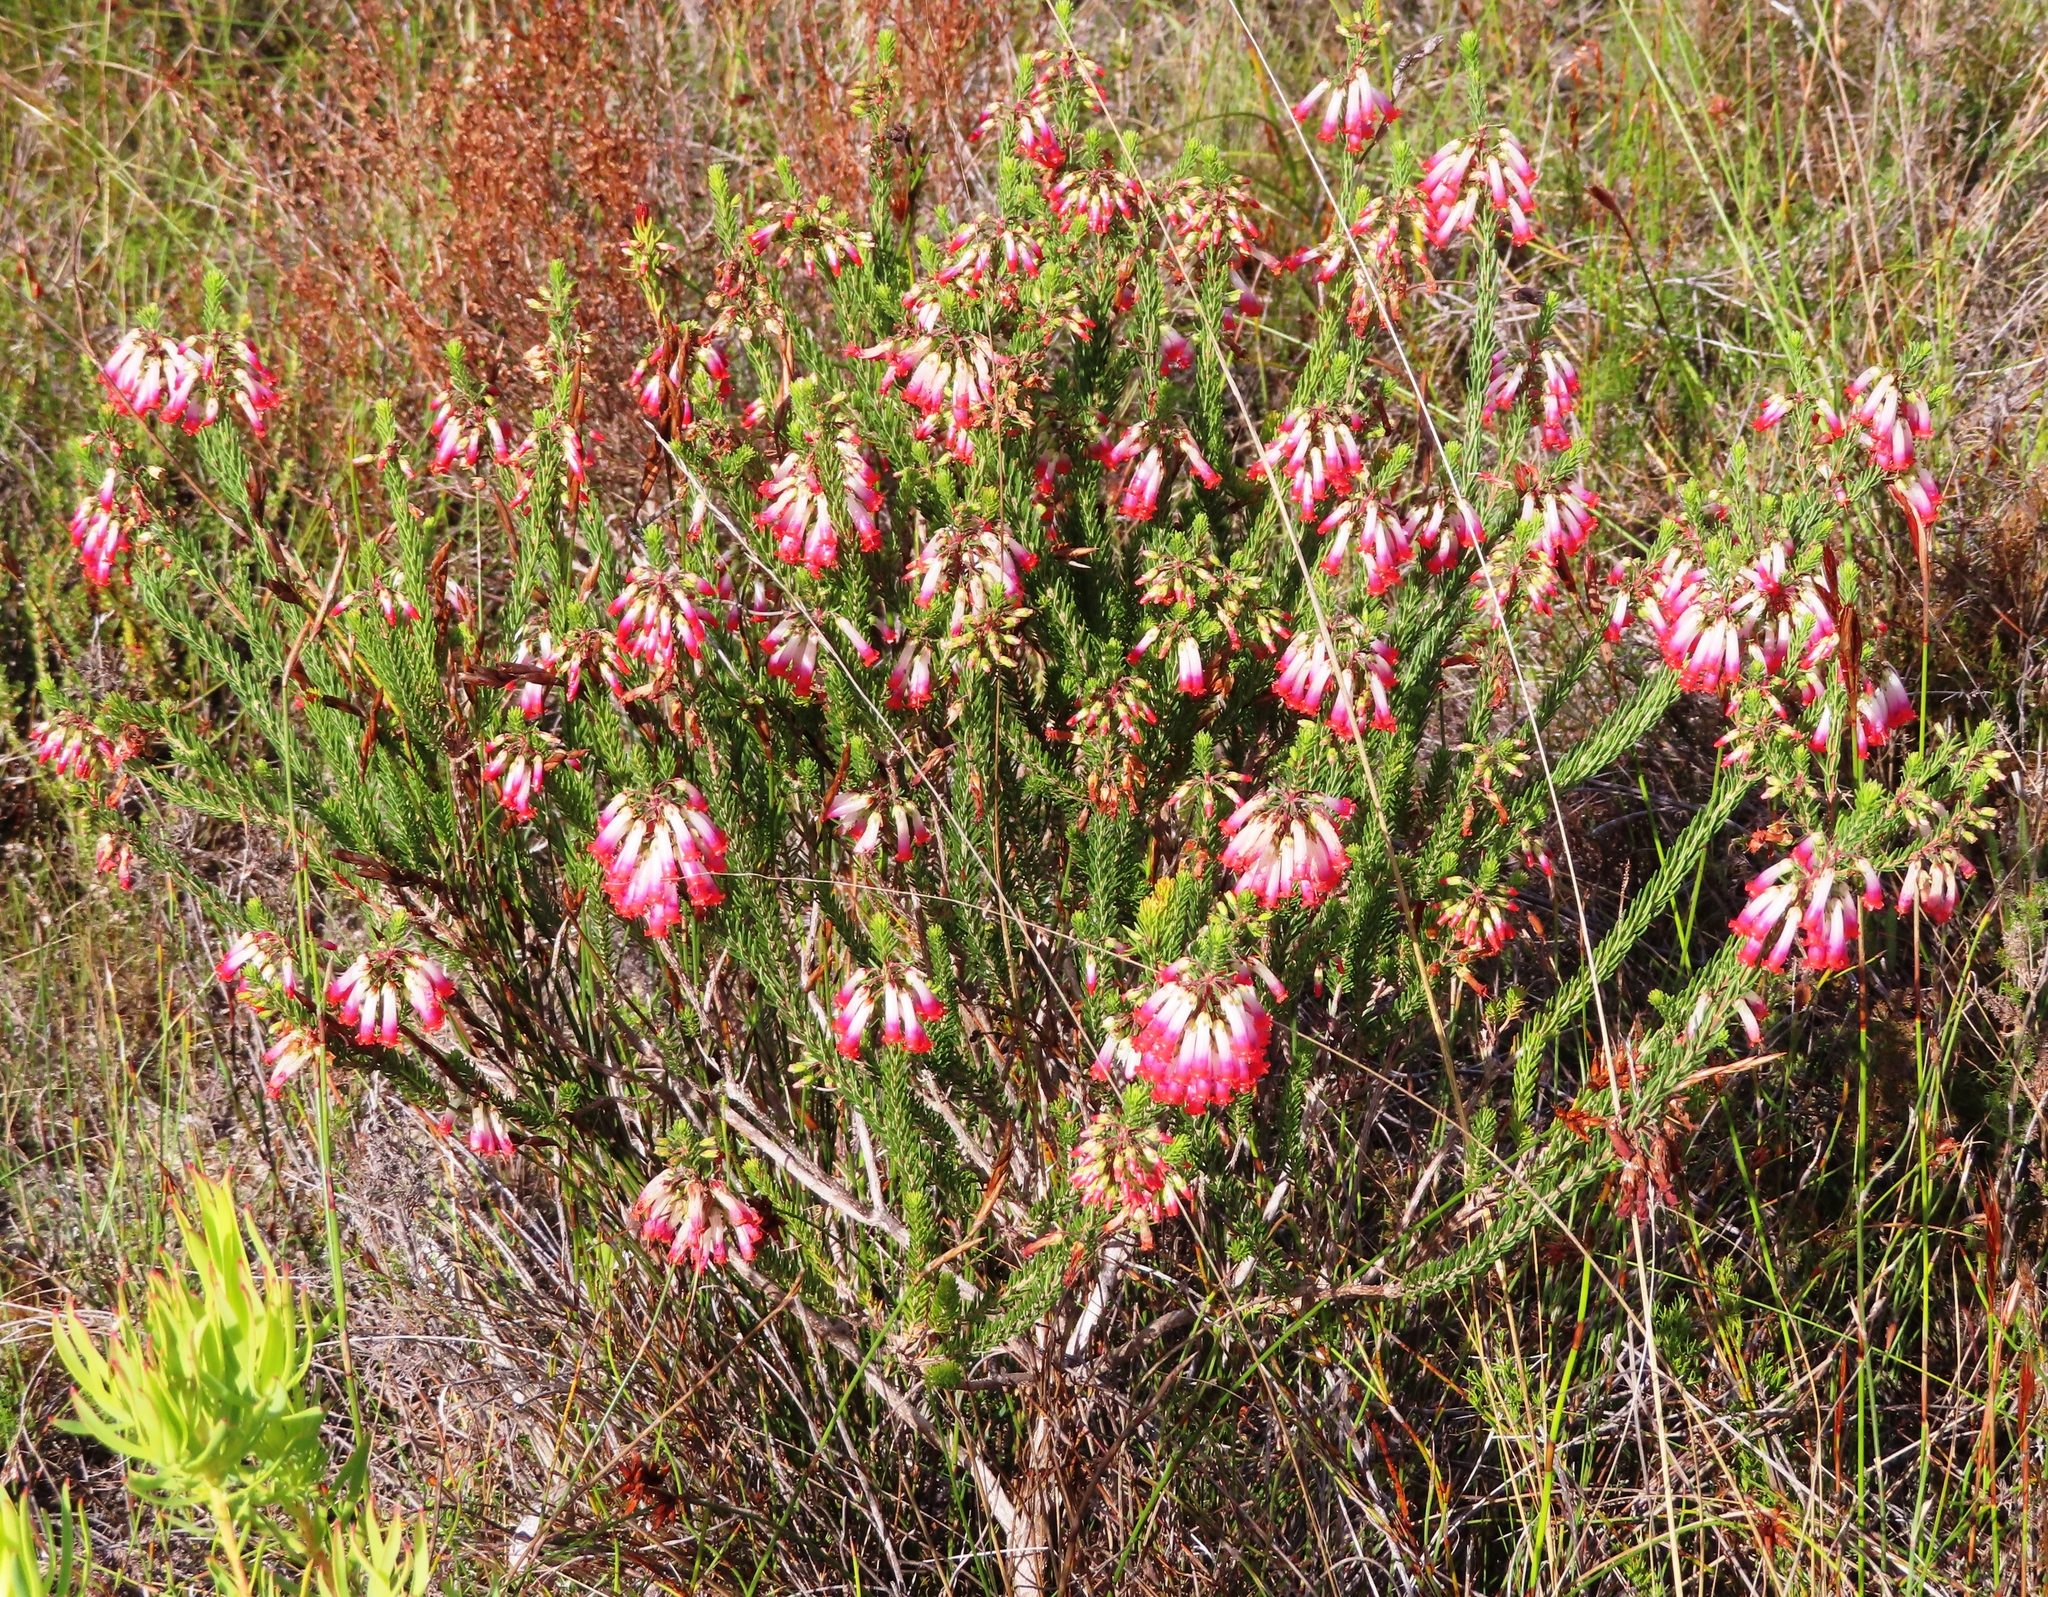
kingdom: Plantae
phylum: Tracheophyta
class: Magnoliopsida
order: Ericales
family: Ericaceae
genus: Erica
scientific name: Erica regia
